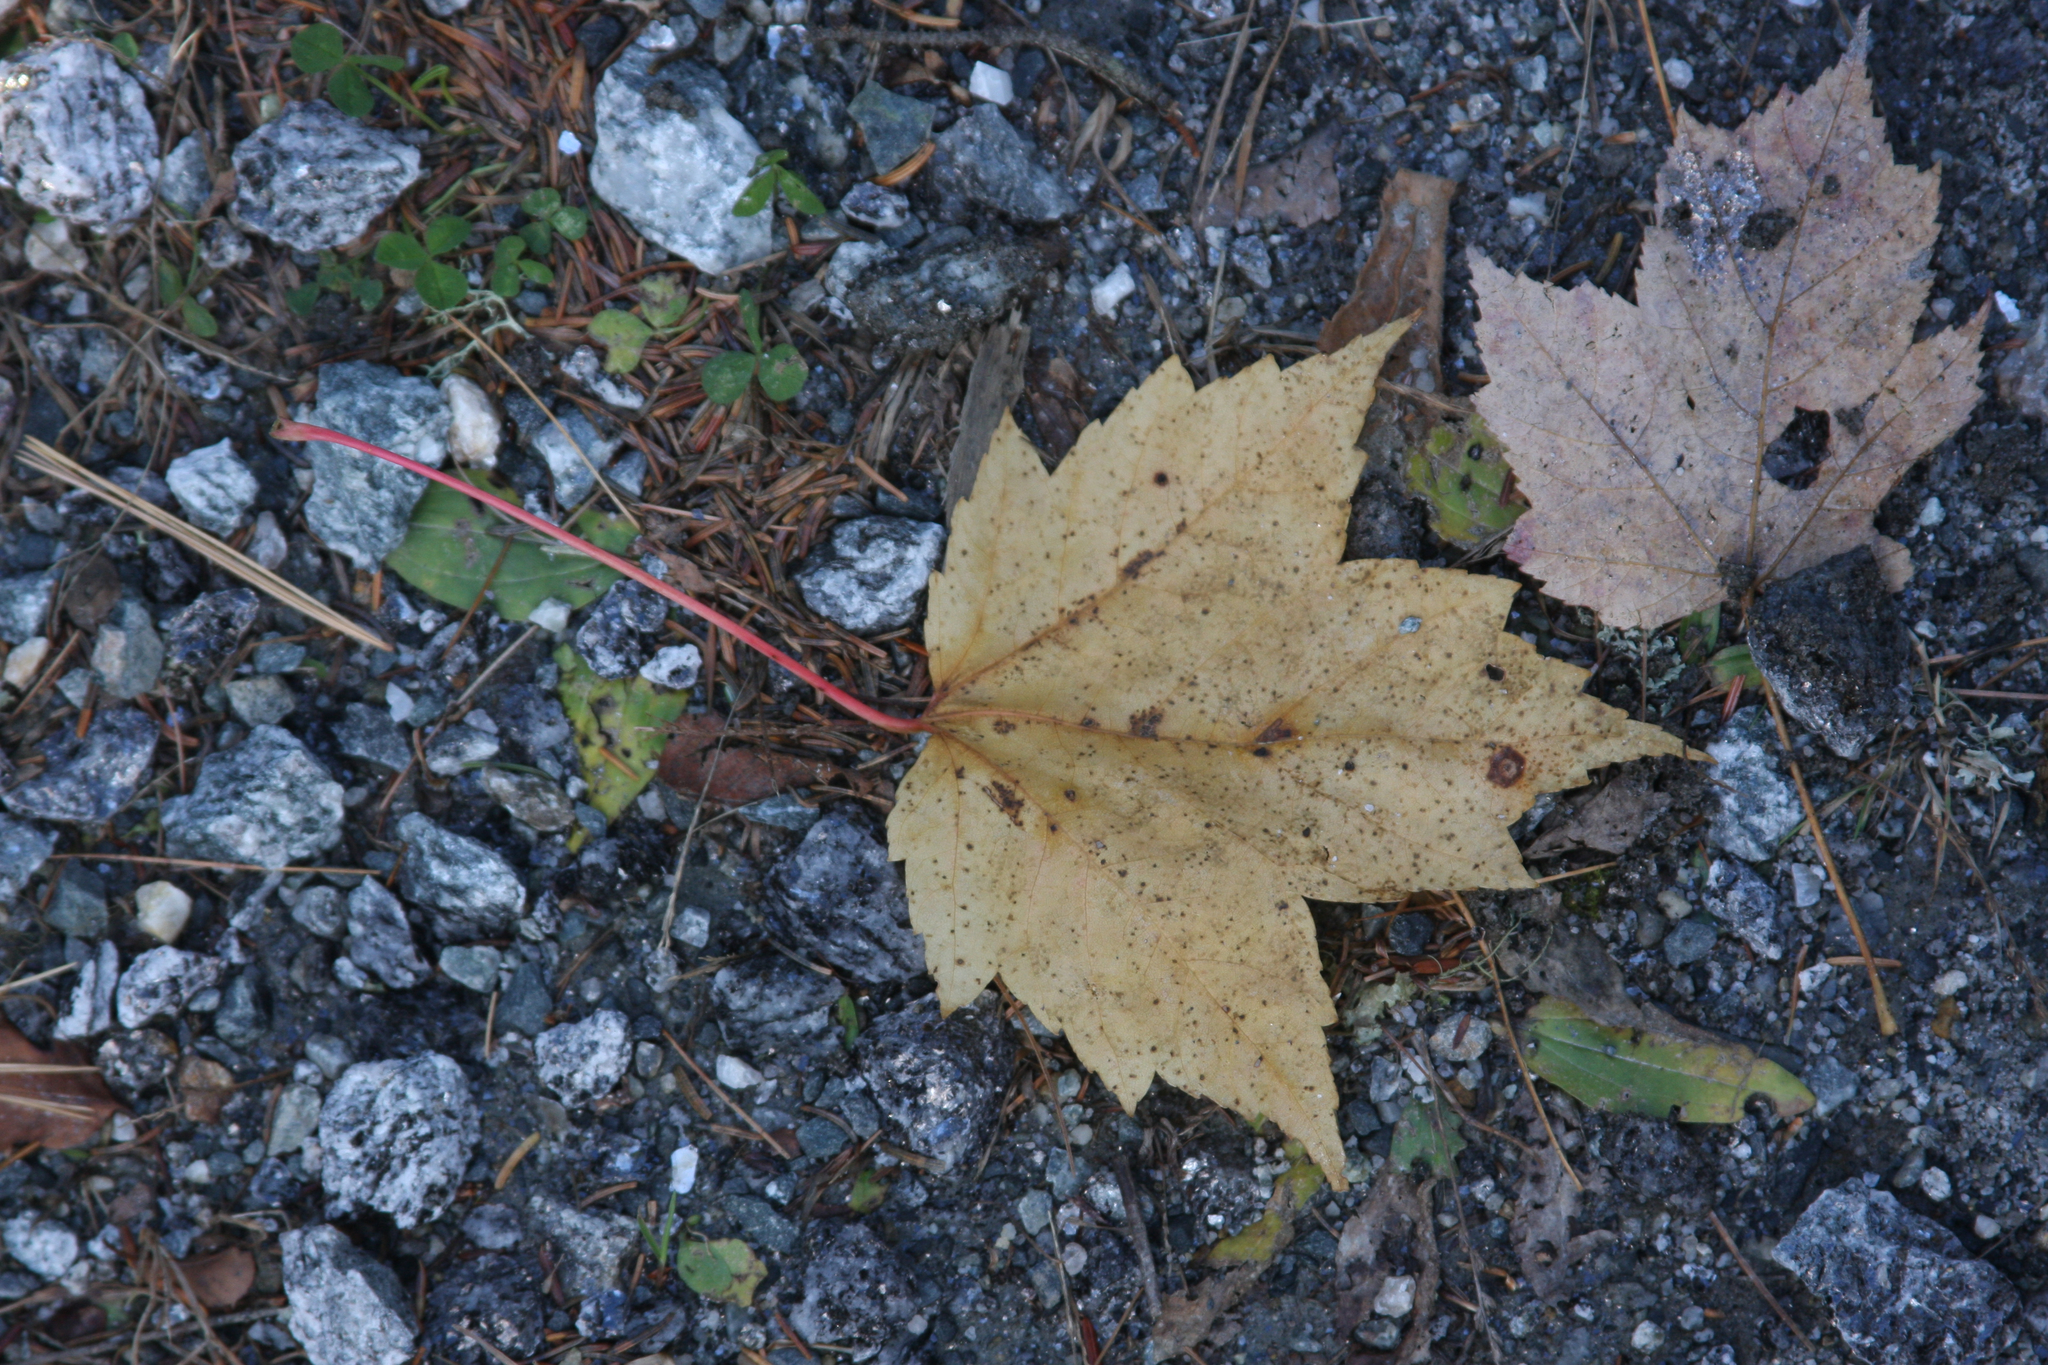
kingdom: Plantae
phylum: Tracheophyta
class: Magnoliopsida
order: Sapindales
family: Sapindaceae
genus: Acer
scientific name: Acer rubrum
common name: Red maple
